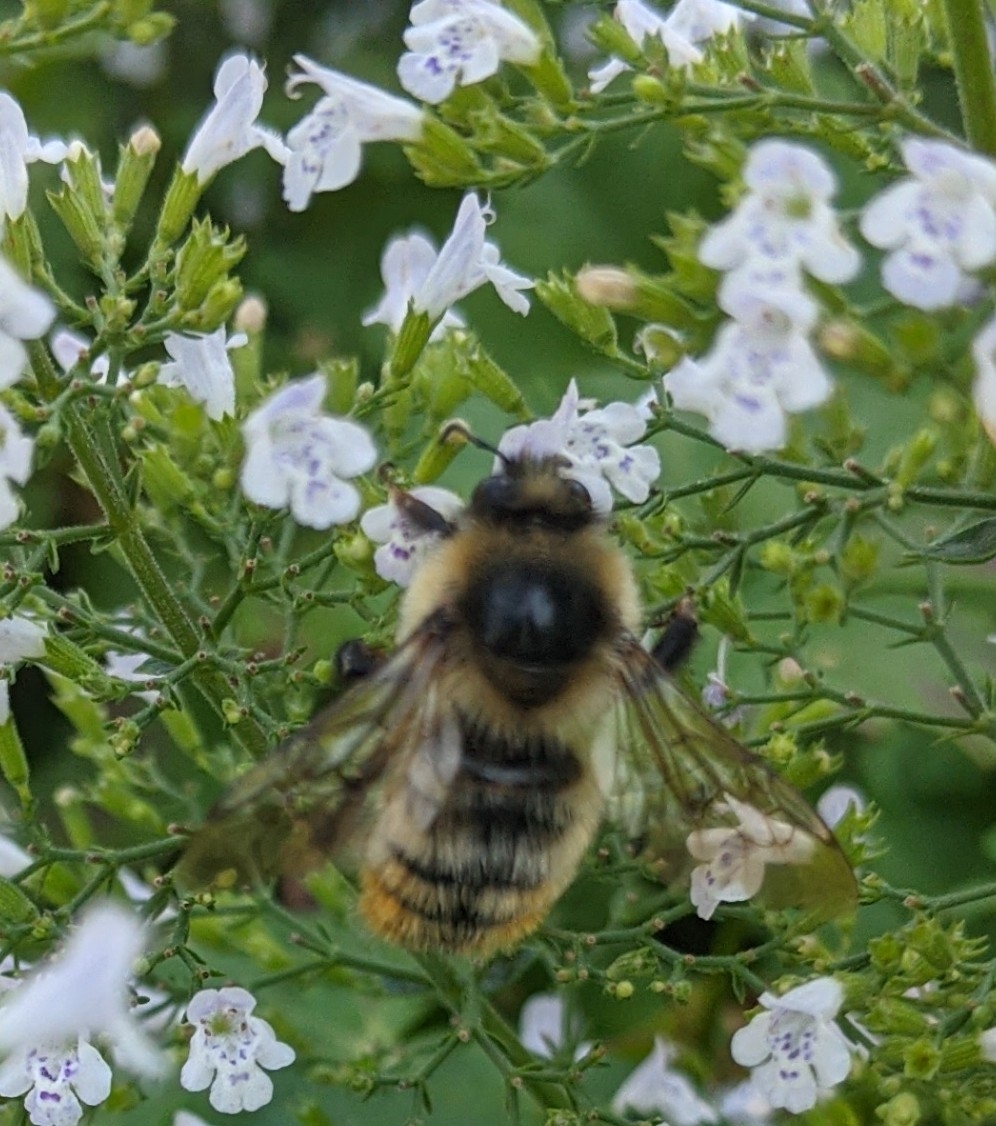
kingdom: Animalia
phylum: Arthropoda
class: Insecta
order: Hymenoptera
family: Apidae
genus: Bombus
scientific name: Bombus rufocinctus
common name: Red-belted bumble bee
